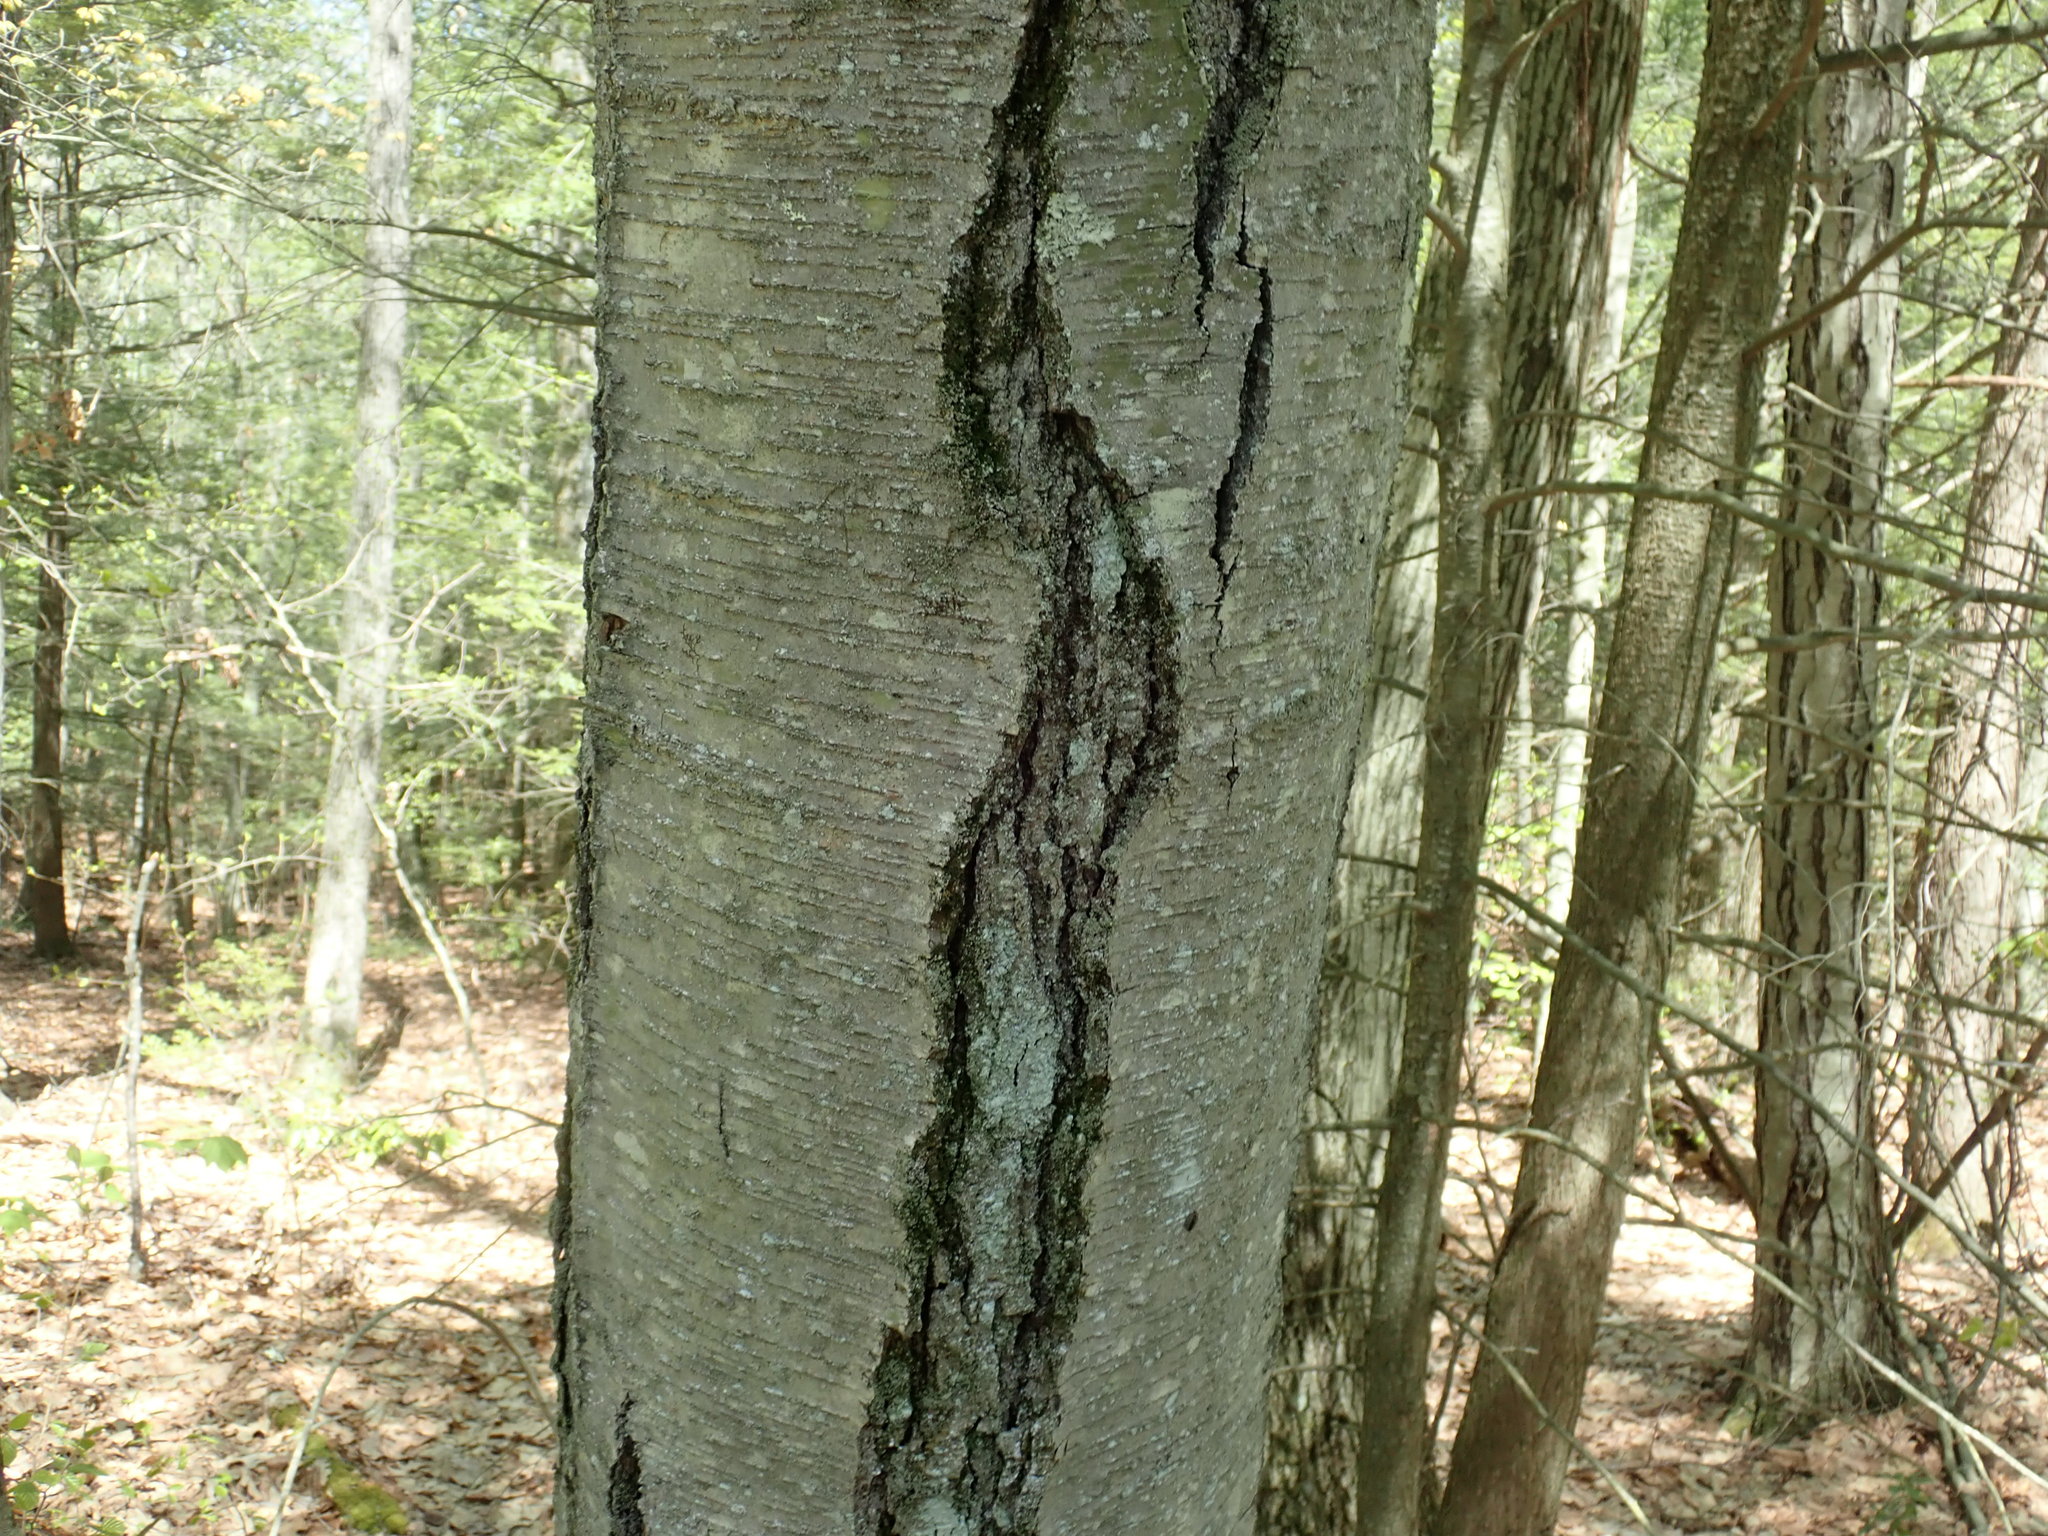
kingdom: Plantae
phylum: Tracheophyta
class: Magnoliopsida
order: Fagales
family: Betulaceae
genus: Betula
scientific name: Betula lenta
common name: Black birch
